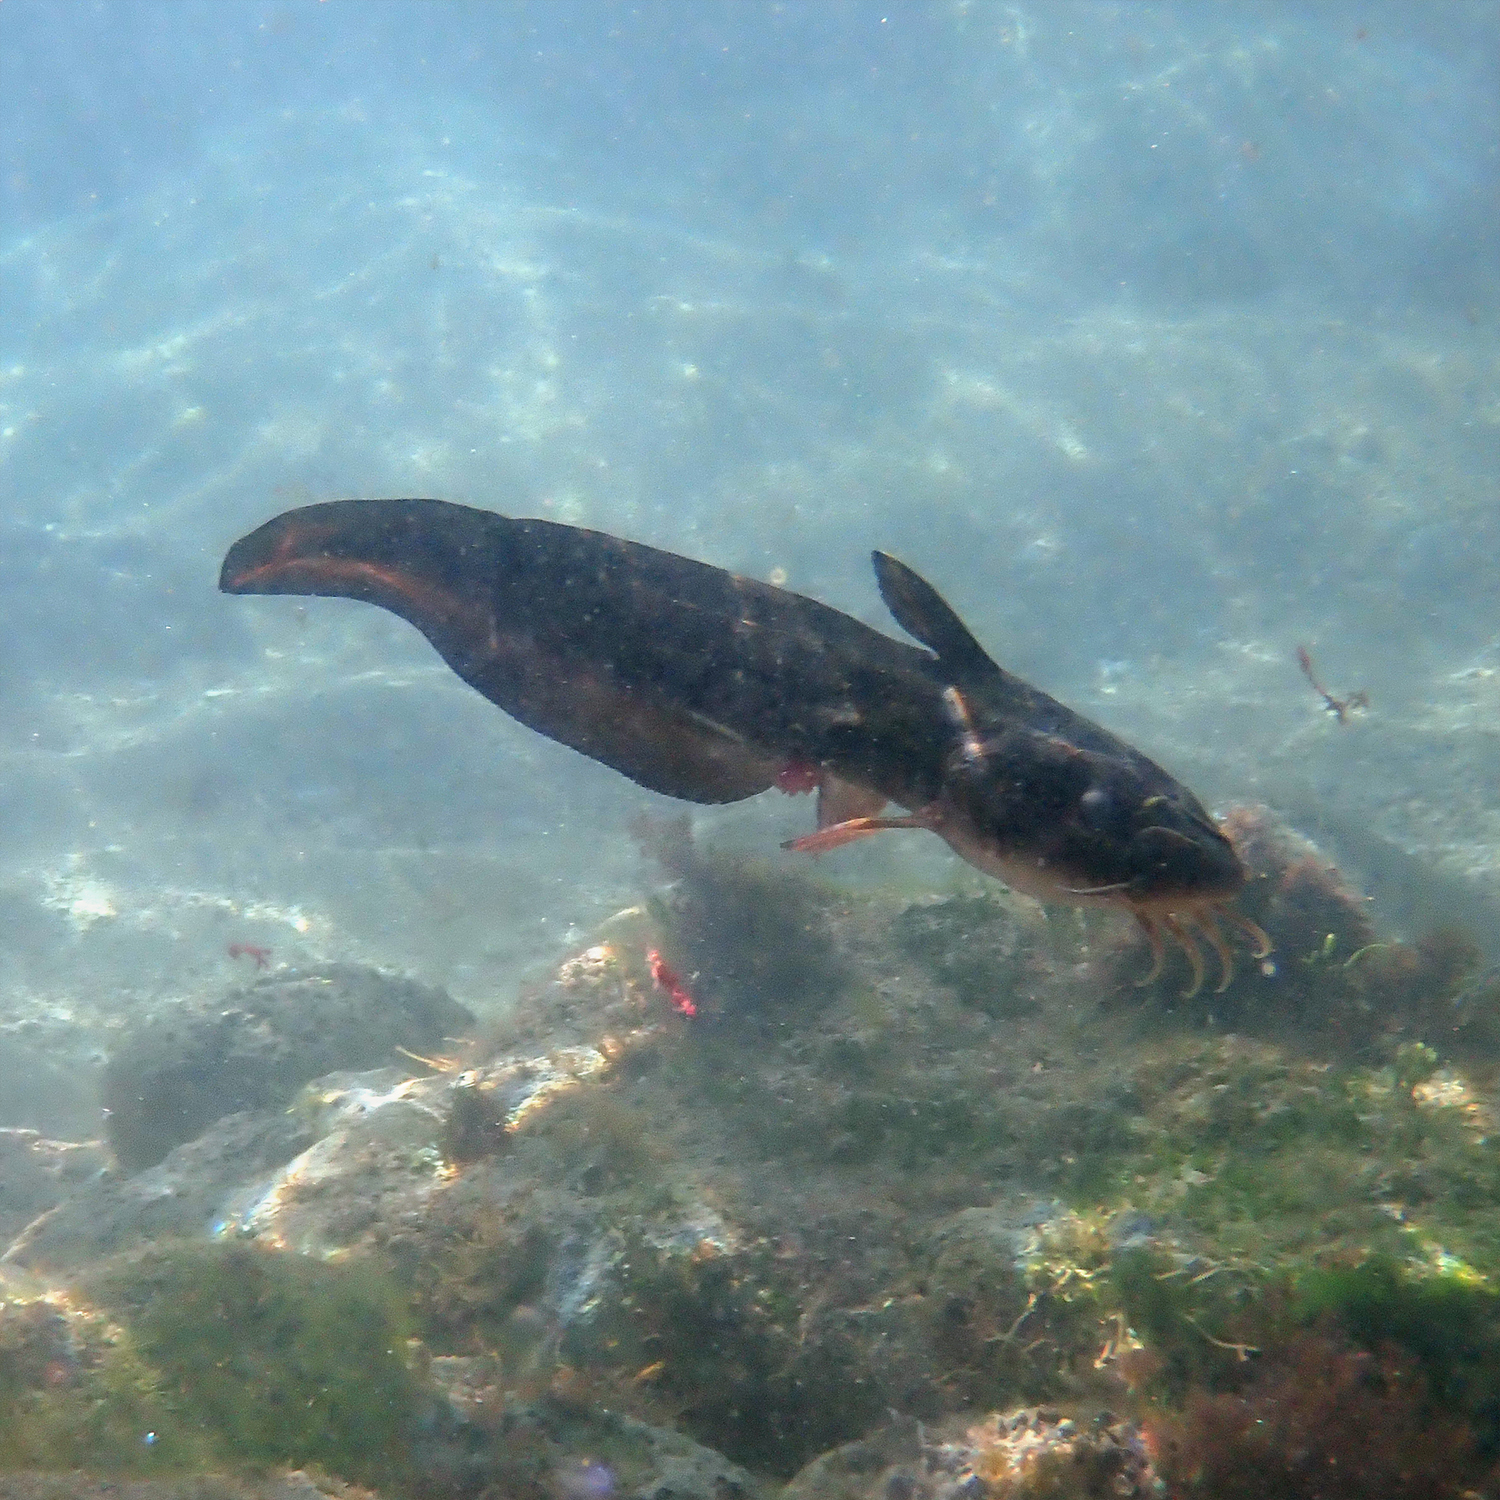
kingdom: Animalia
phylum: Chordata
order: Siluriformes
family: Plotosidae
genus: Plotosus
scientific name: Plotosus lineatus
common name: Striped eel catfish
